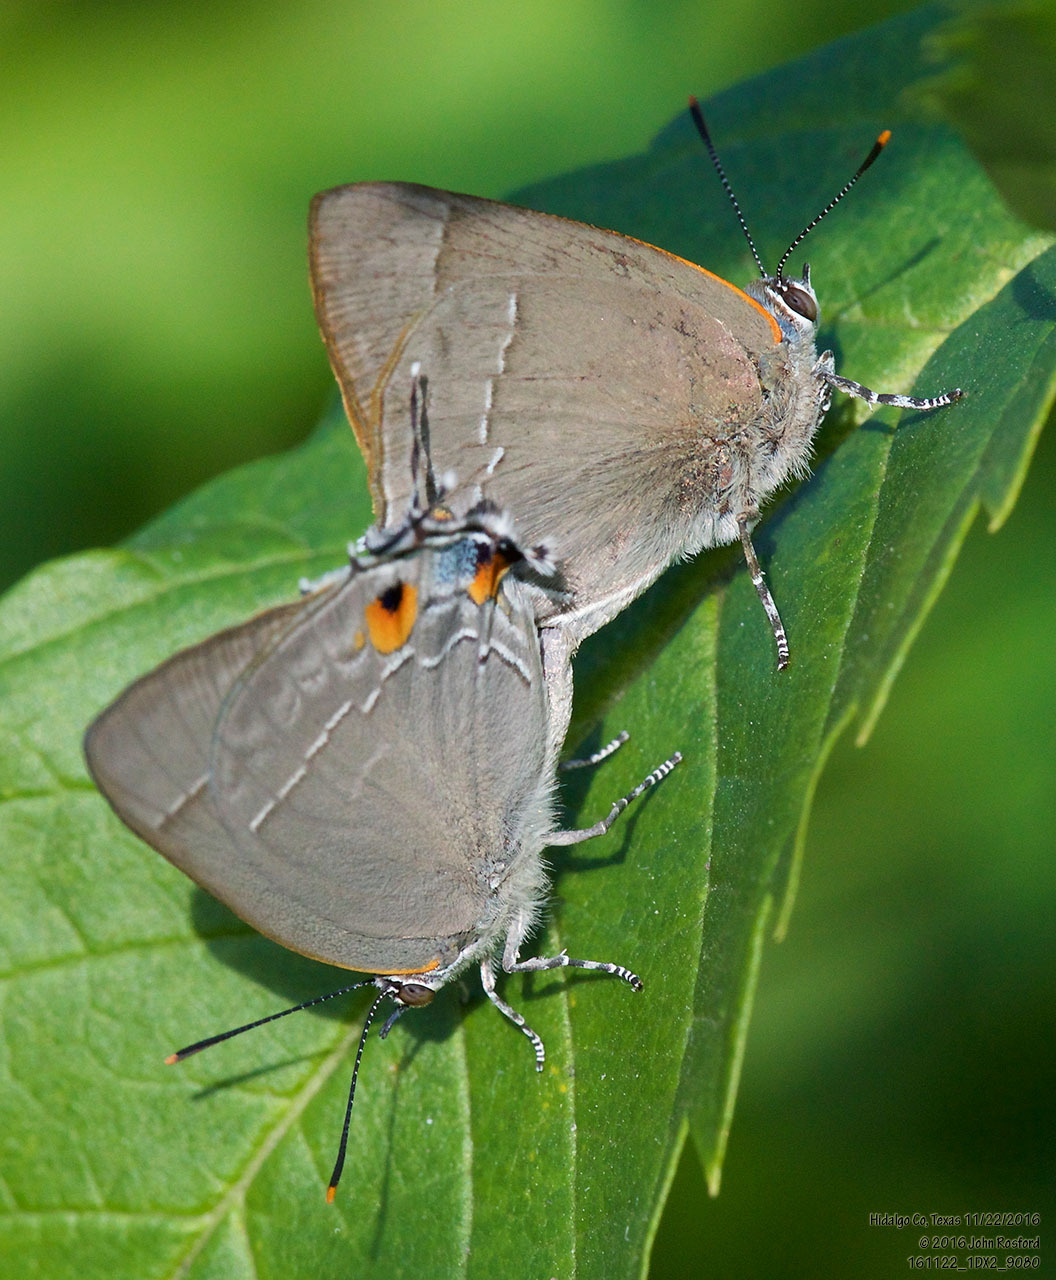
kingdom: Animalia
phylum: Arthropoda
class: Insecta
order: Lepidoptera
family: Lycaenidae
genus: Thecla
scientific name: Thecla marius
